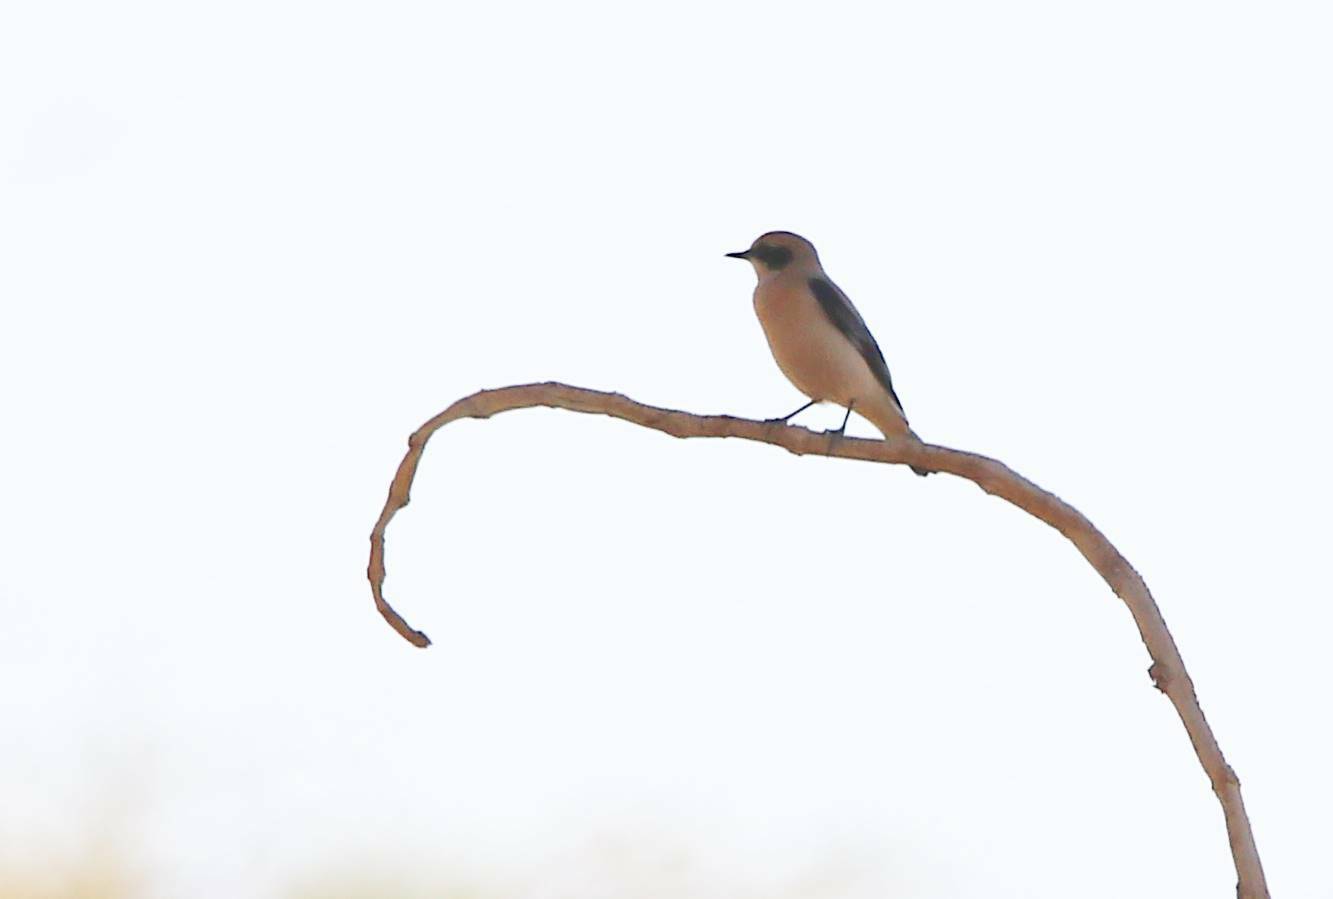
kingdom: Animalia
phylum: Chordata
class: Aves
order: Passeriformes
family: Muscicapidae
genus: Oenanthe
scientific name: Oenanthe hispanica
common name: Black-eared wheatear
